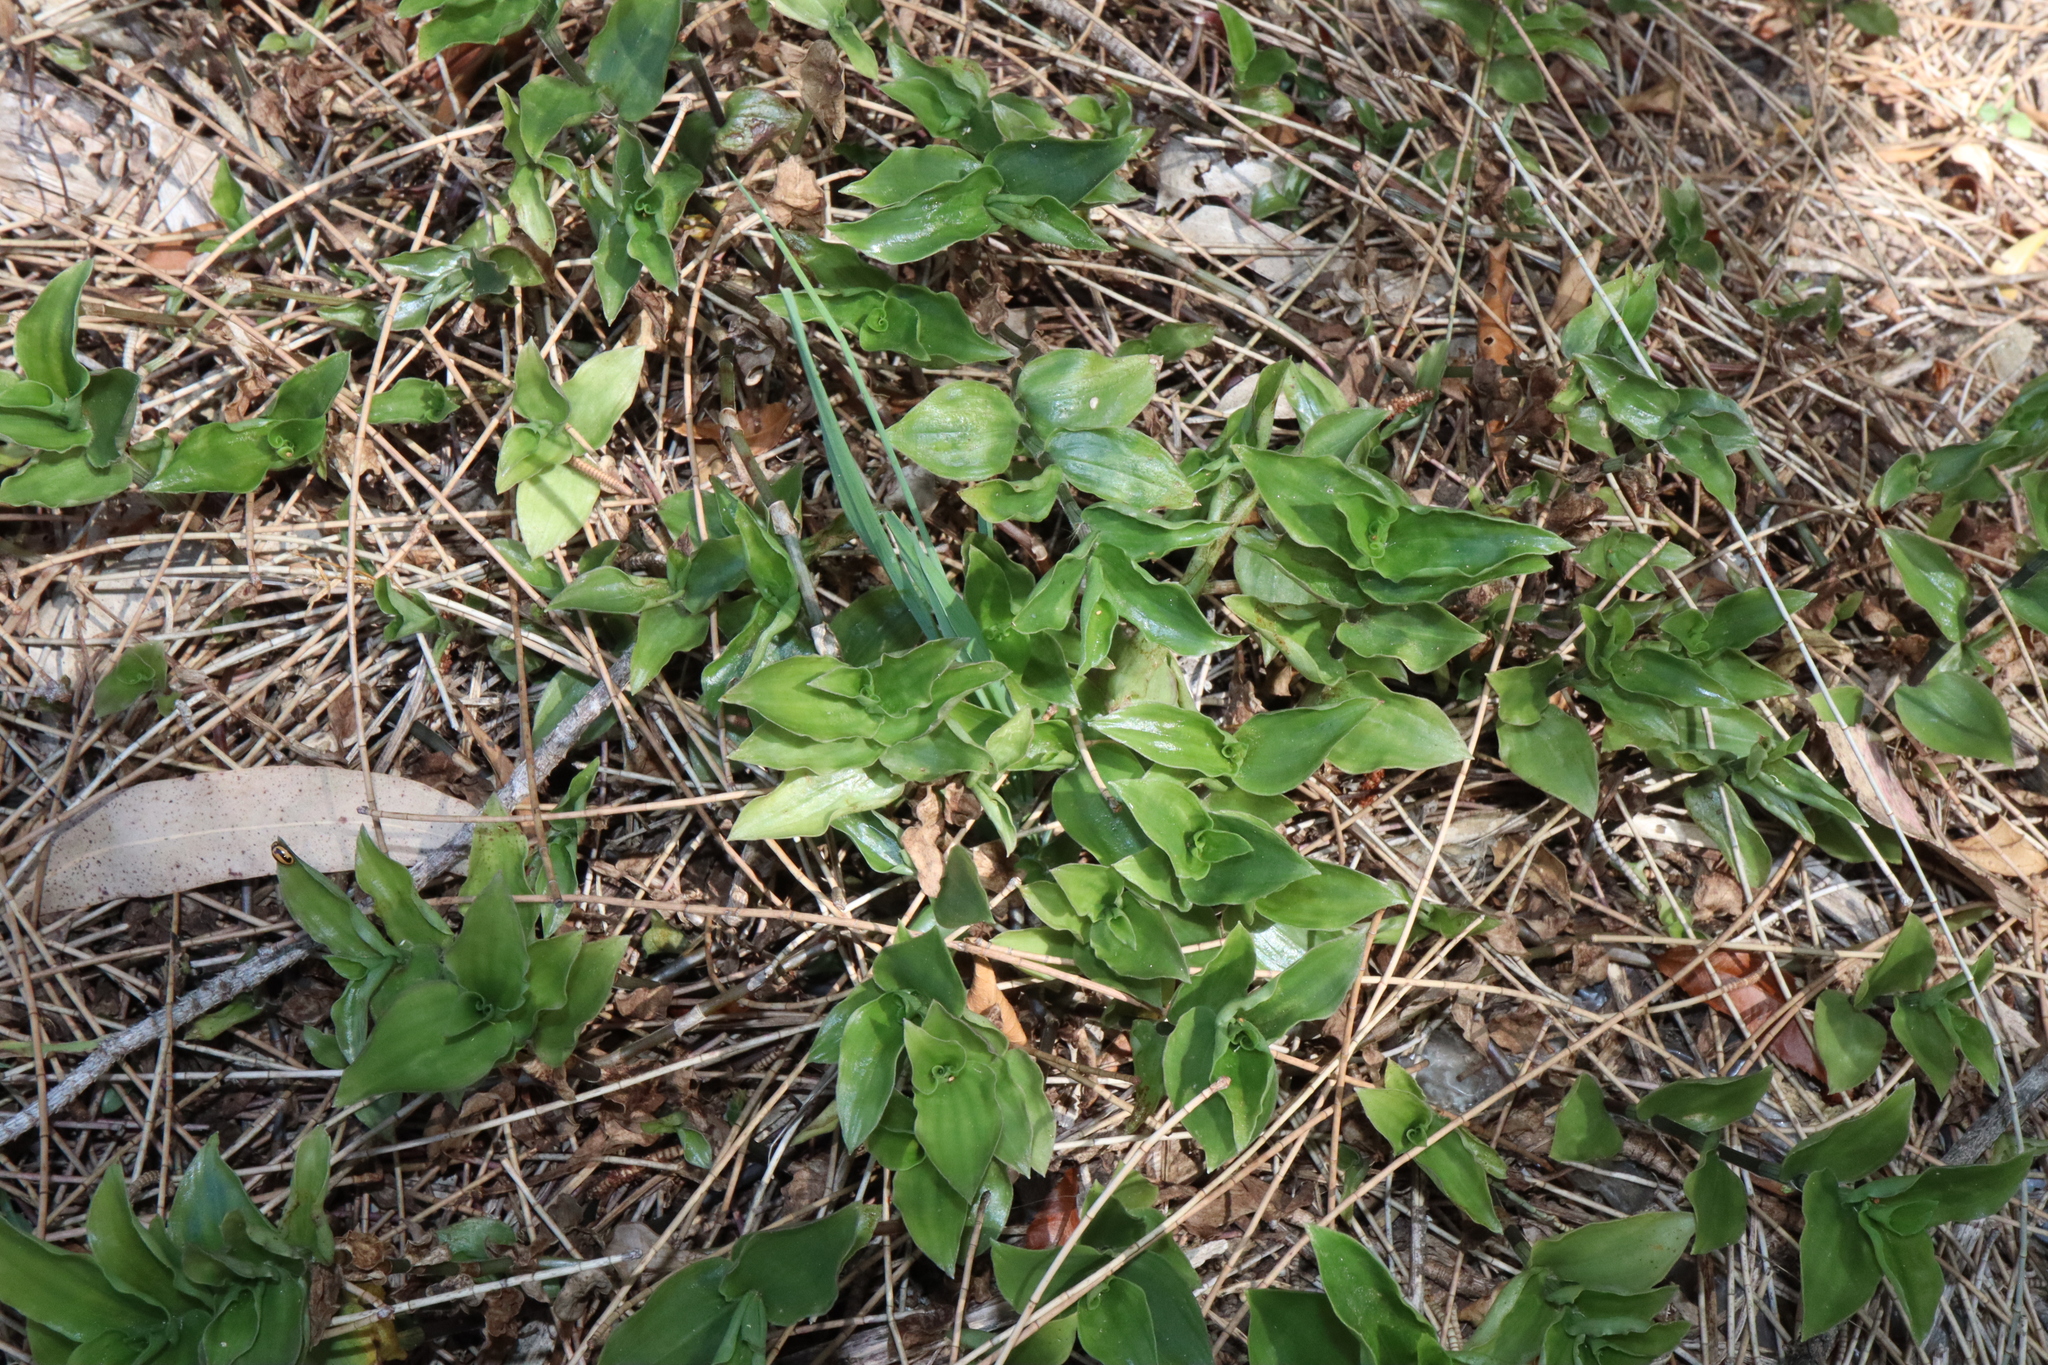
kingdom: Plantae
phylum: Tracheophyta
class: Liliopsida
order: Commelinales
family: Commelinaceae
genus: Tradescantia
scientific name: Tradescantia fluminensis
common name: Wandering-jew
